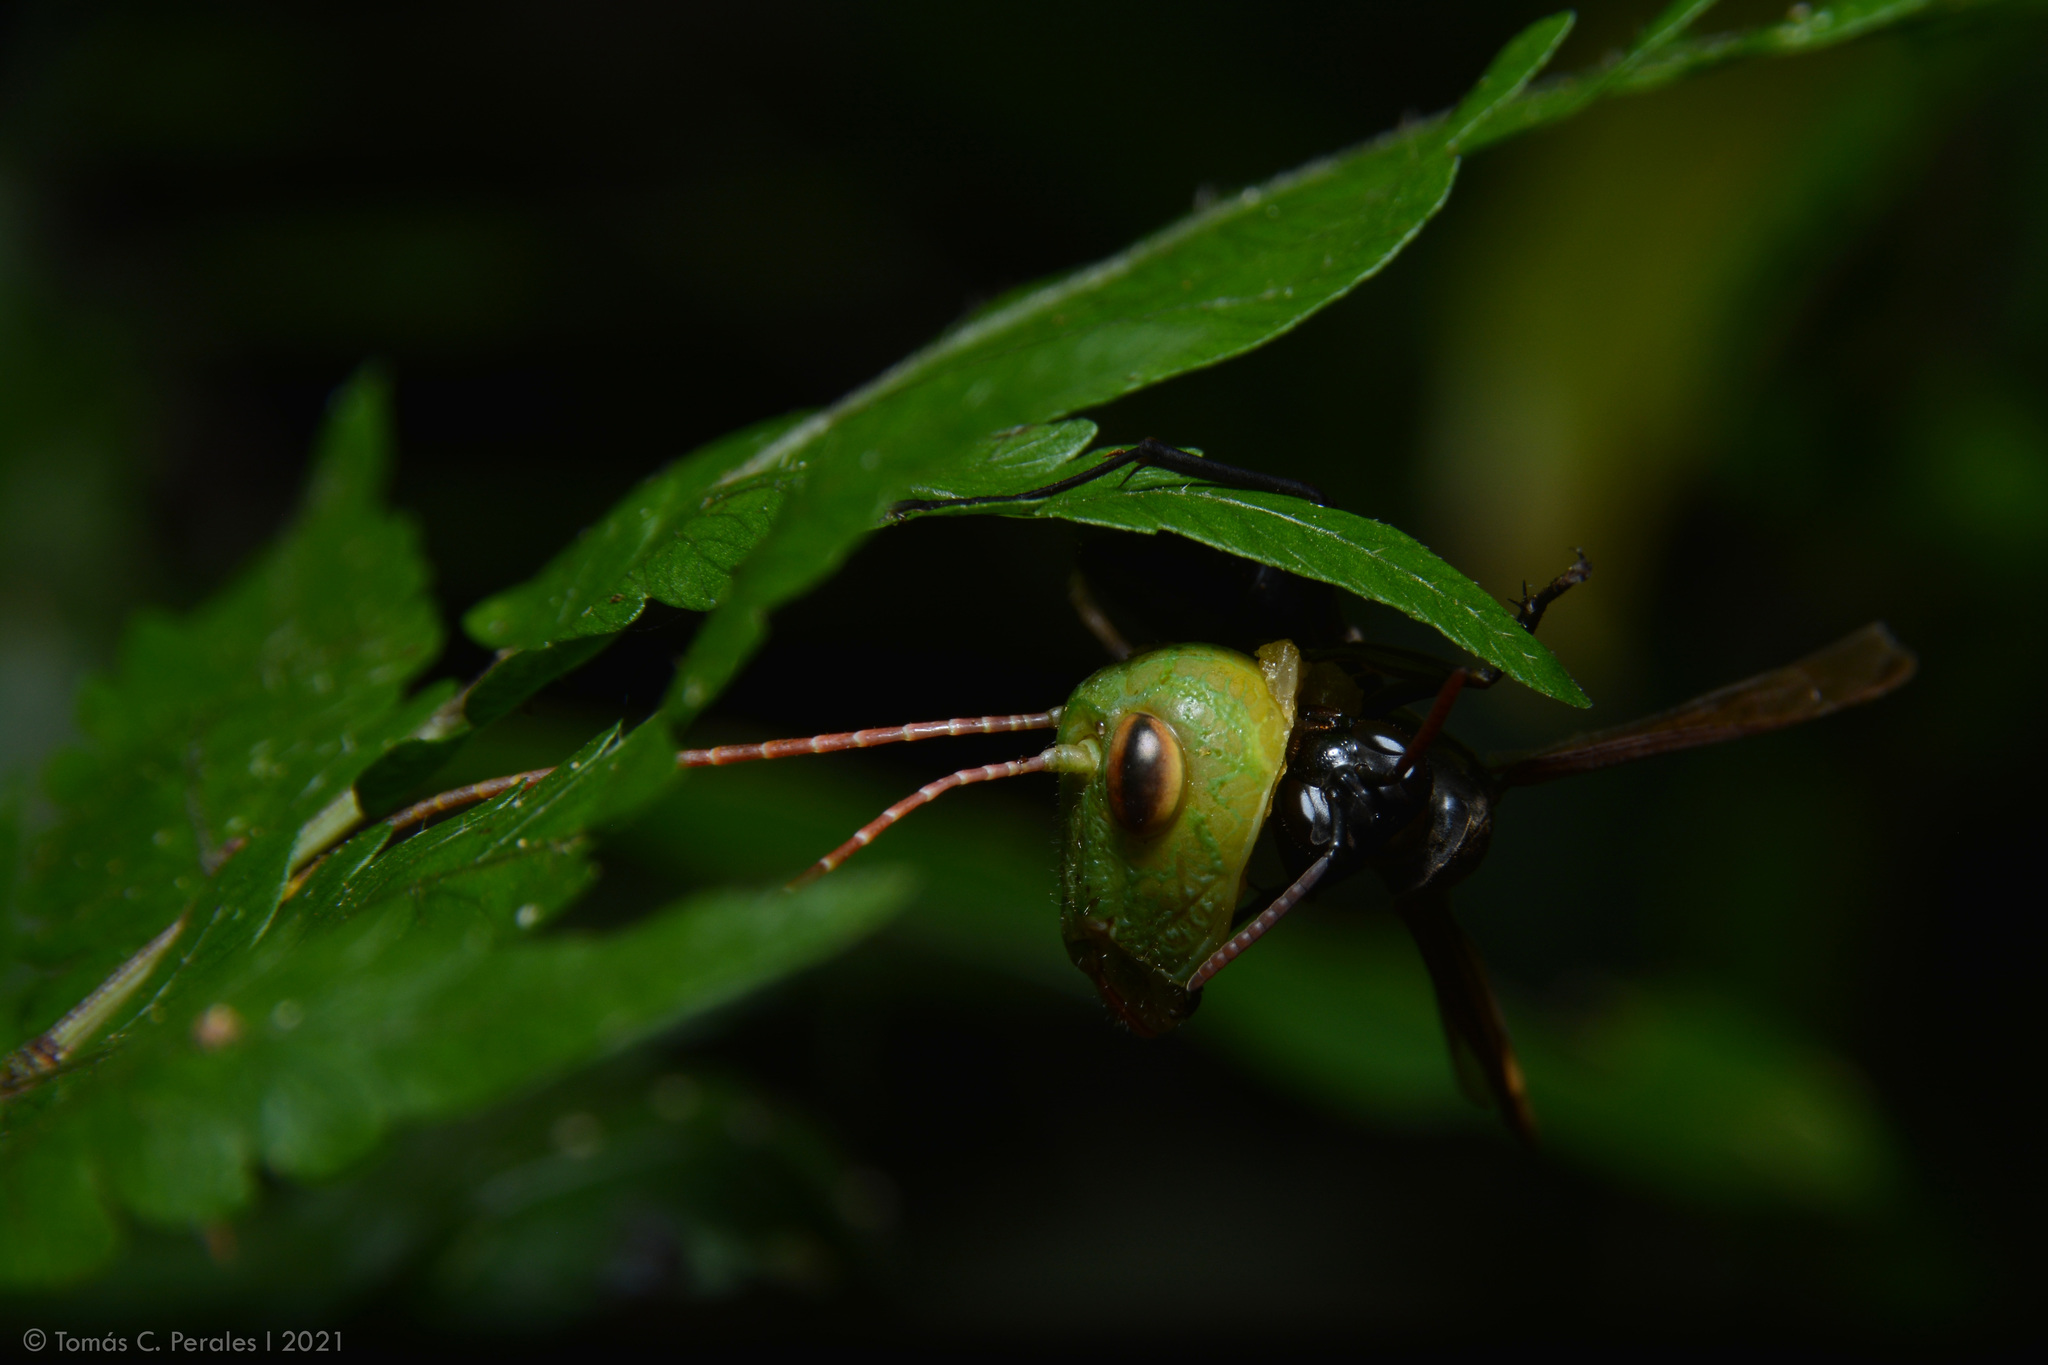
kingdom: Animalia
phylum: Arthropoda
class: Insecta
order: Hymenoptera
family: Vespidae
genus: Agelaia
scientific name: Agelaia angulata
